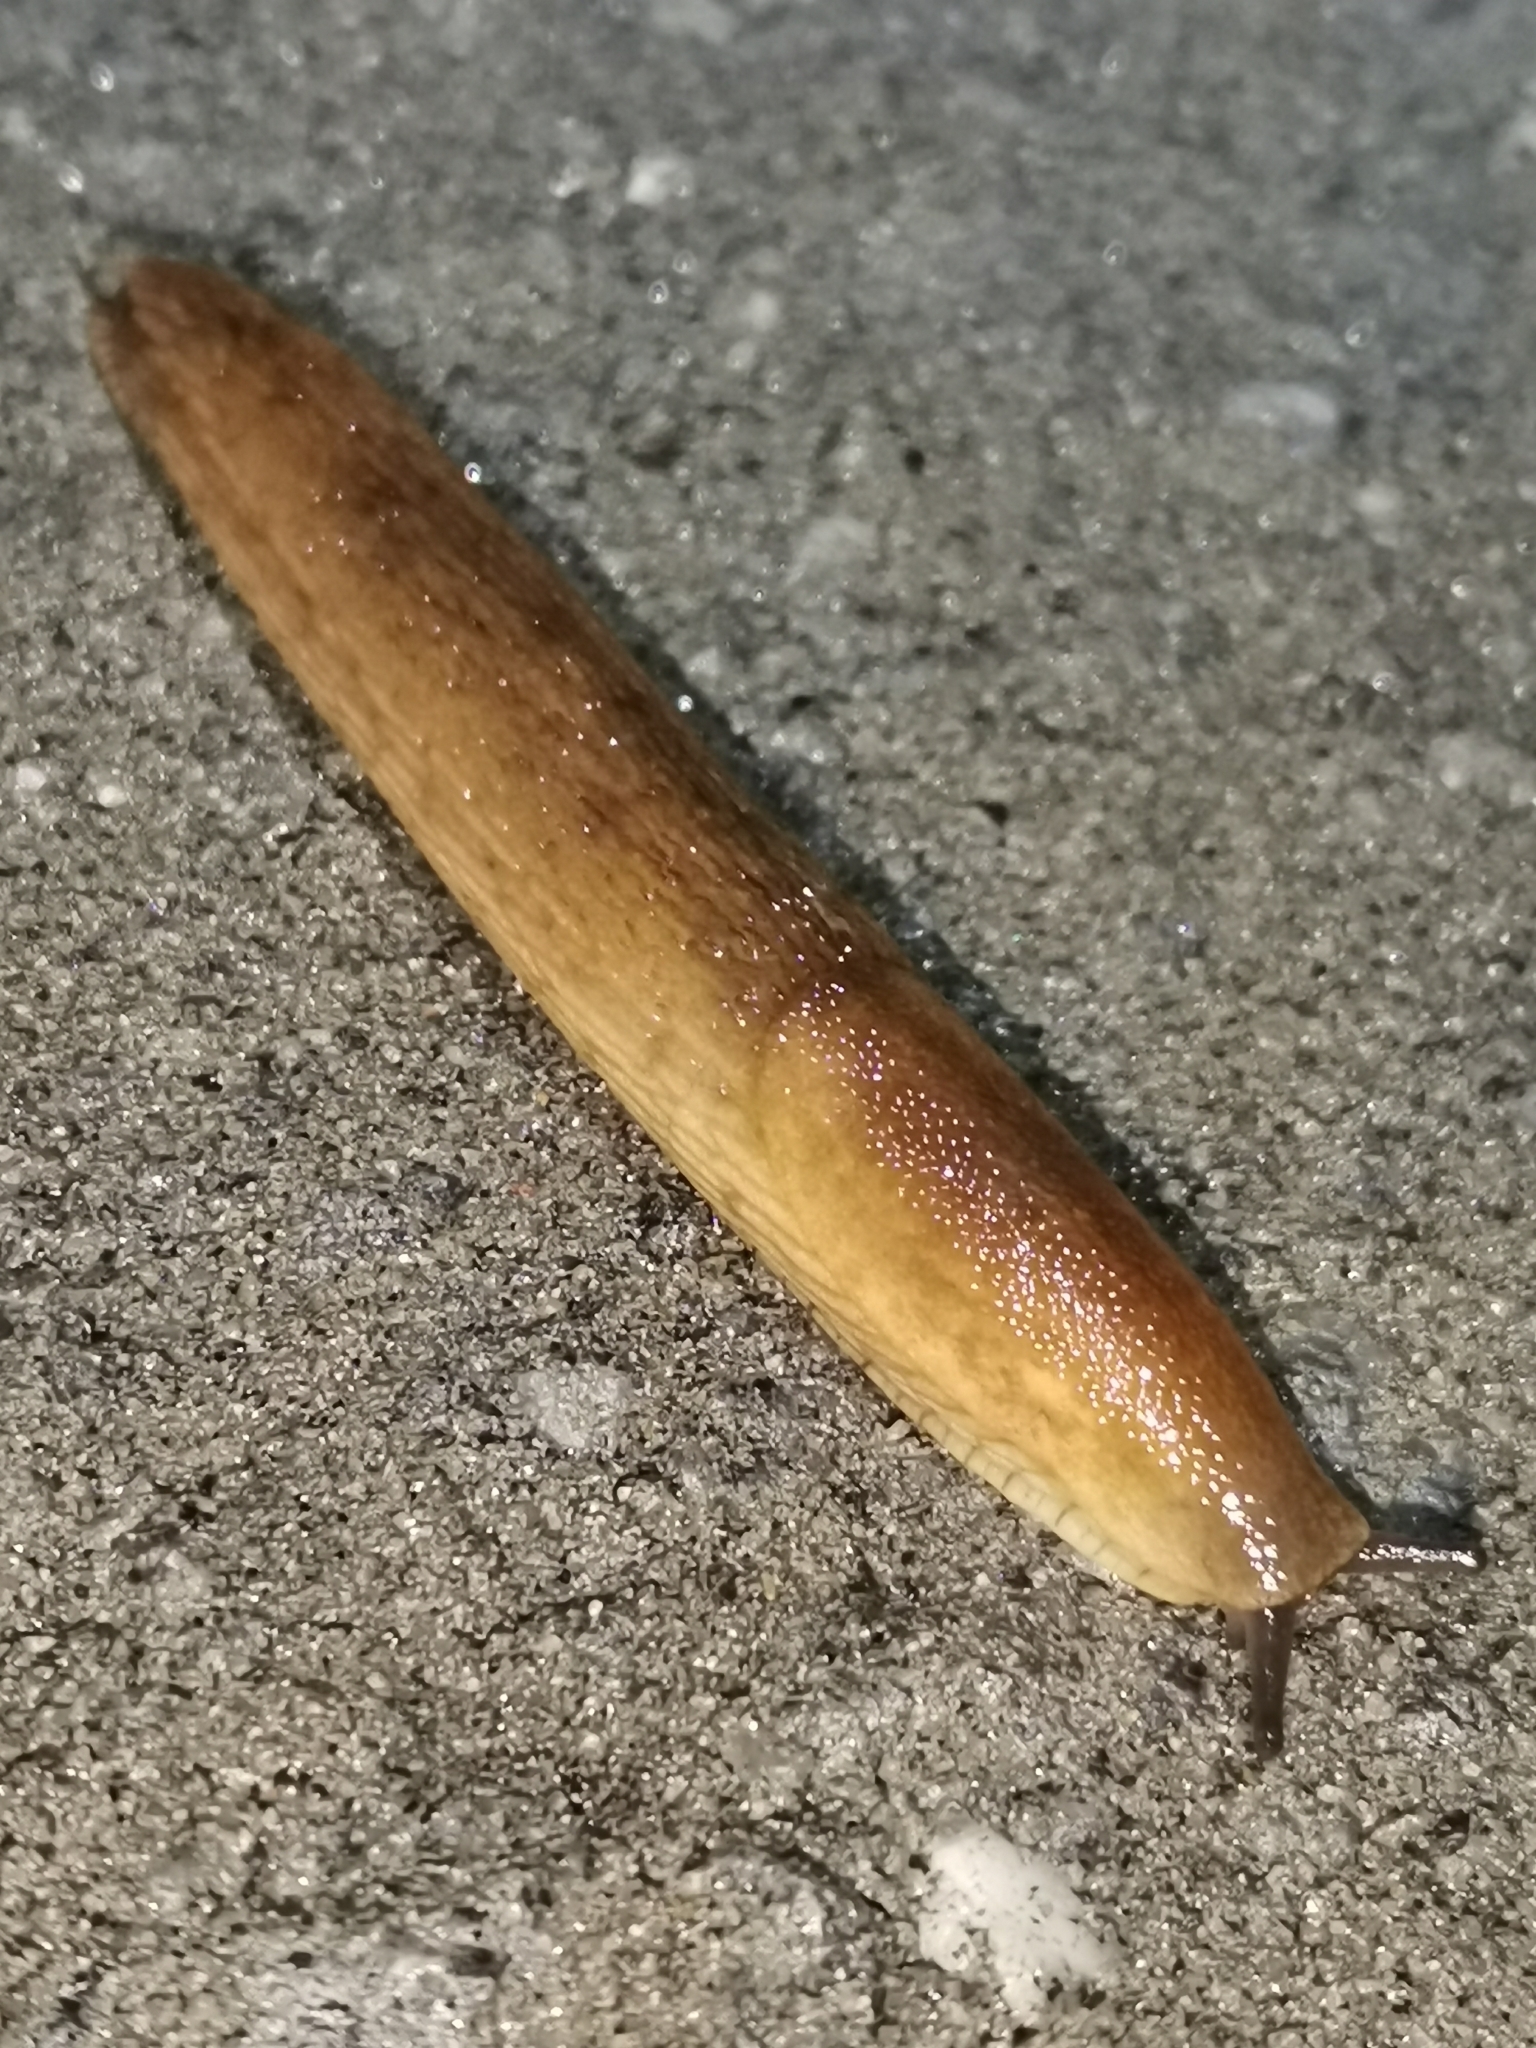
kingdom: Animalia
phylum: Mollusca
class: Gastropoda
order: Stylommatophora
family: Arionidae
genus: Arion
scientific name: Arion fuscus
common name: Northern dusky slug
